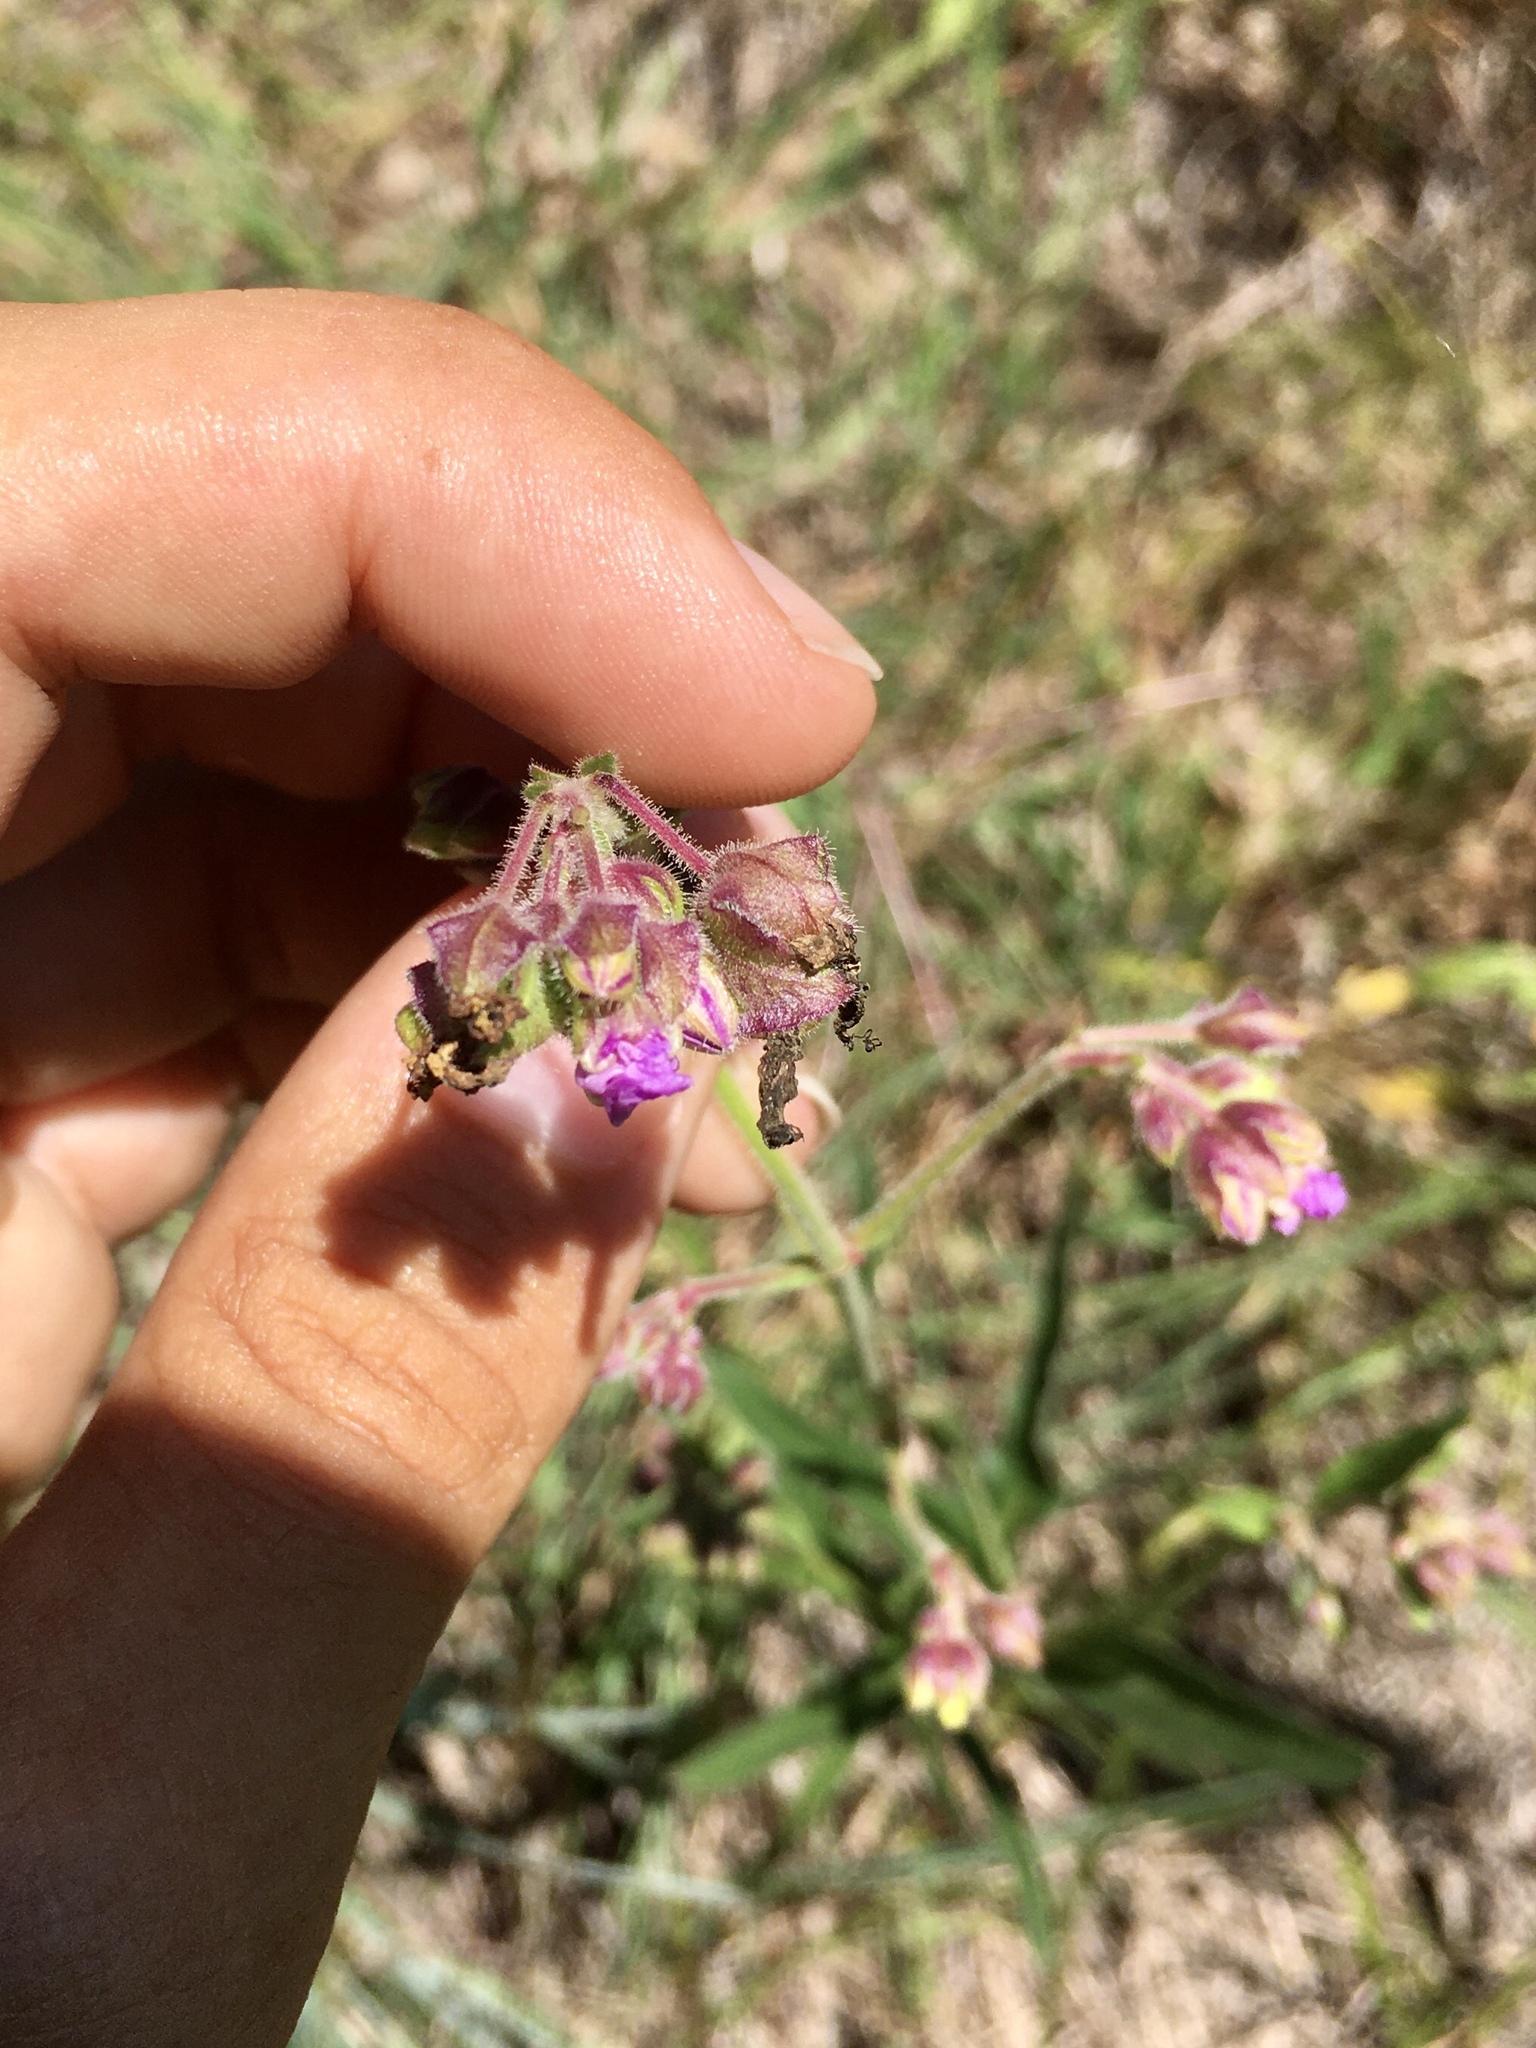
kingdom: Plantae
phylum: Tracheophyta
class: Magnoliopsida
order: Caryophyllales
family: Nyctaginaceae
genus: Mirabilis
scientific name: Mirabilis albida
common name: Hairy four-o'clock
